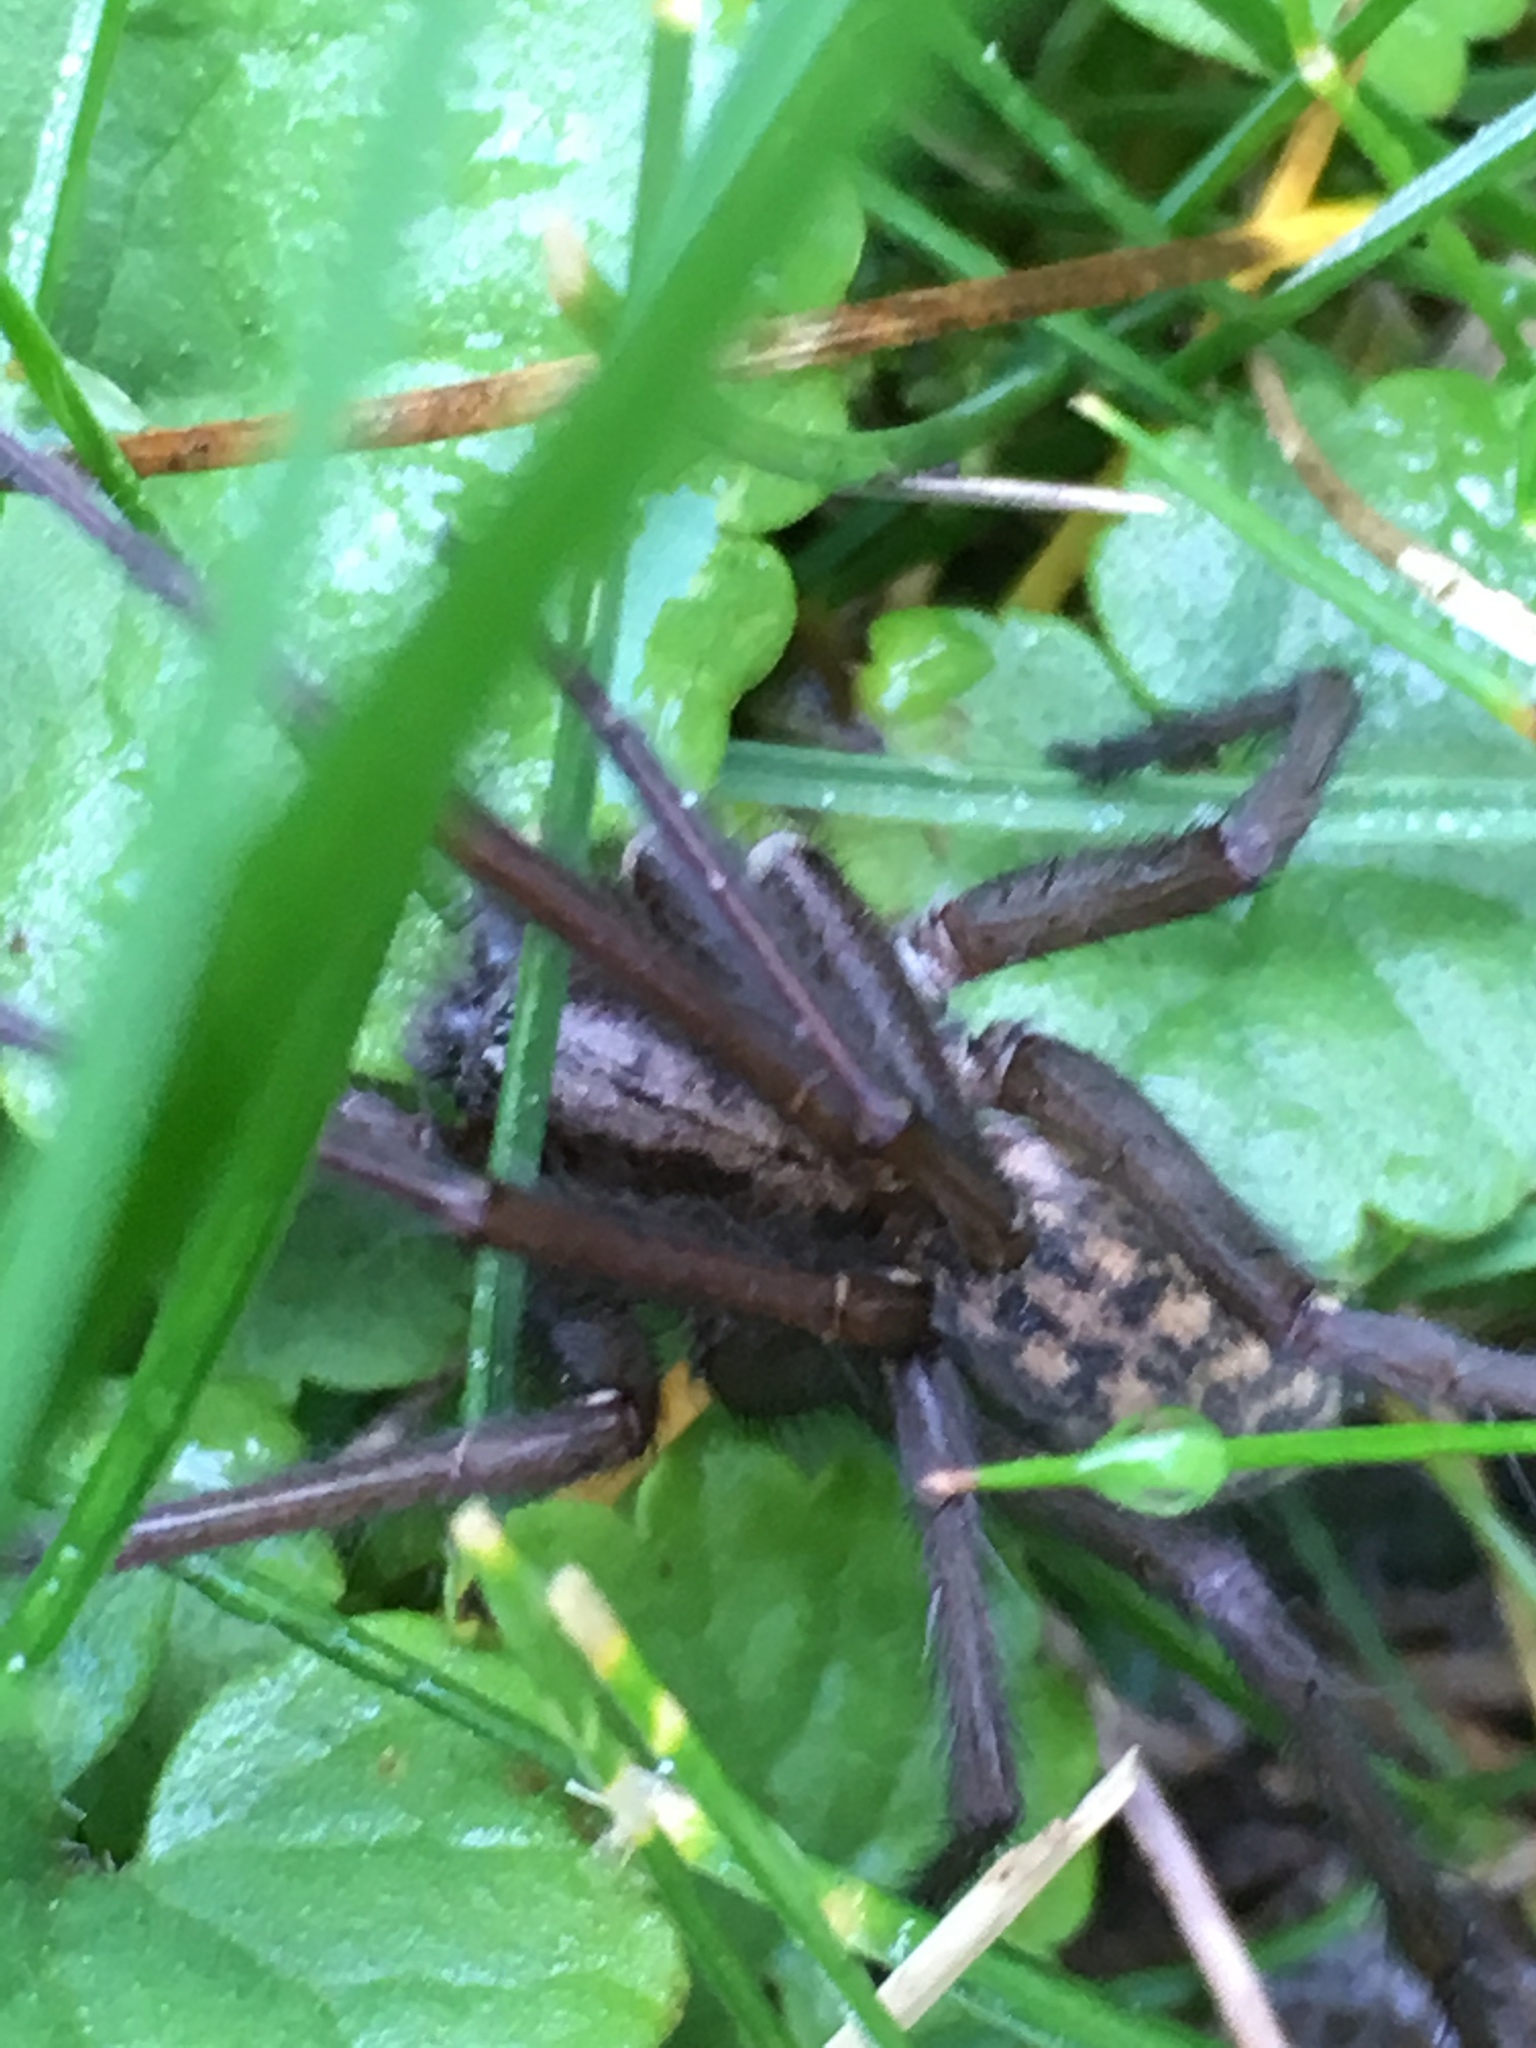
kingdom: Animalia
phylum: Arthropoda
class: Arachnida
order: Araneae
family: Agelenidae
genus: Eratigena
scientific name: Eratigena atrica
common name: Giant house spider
